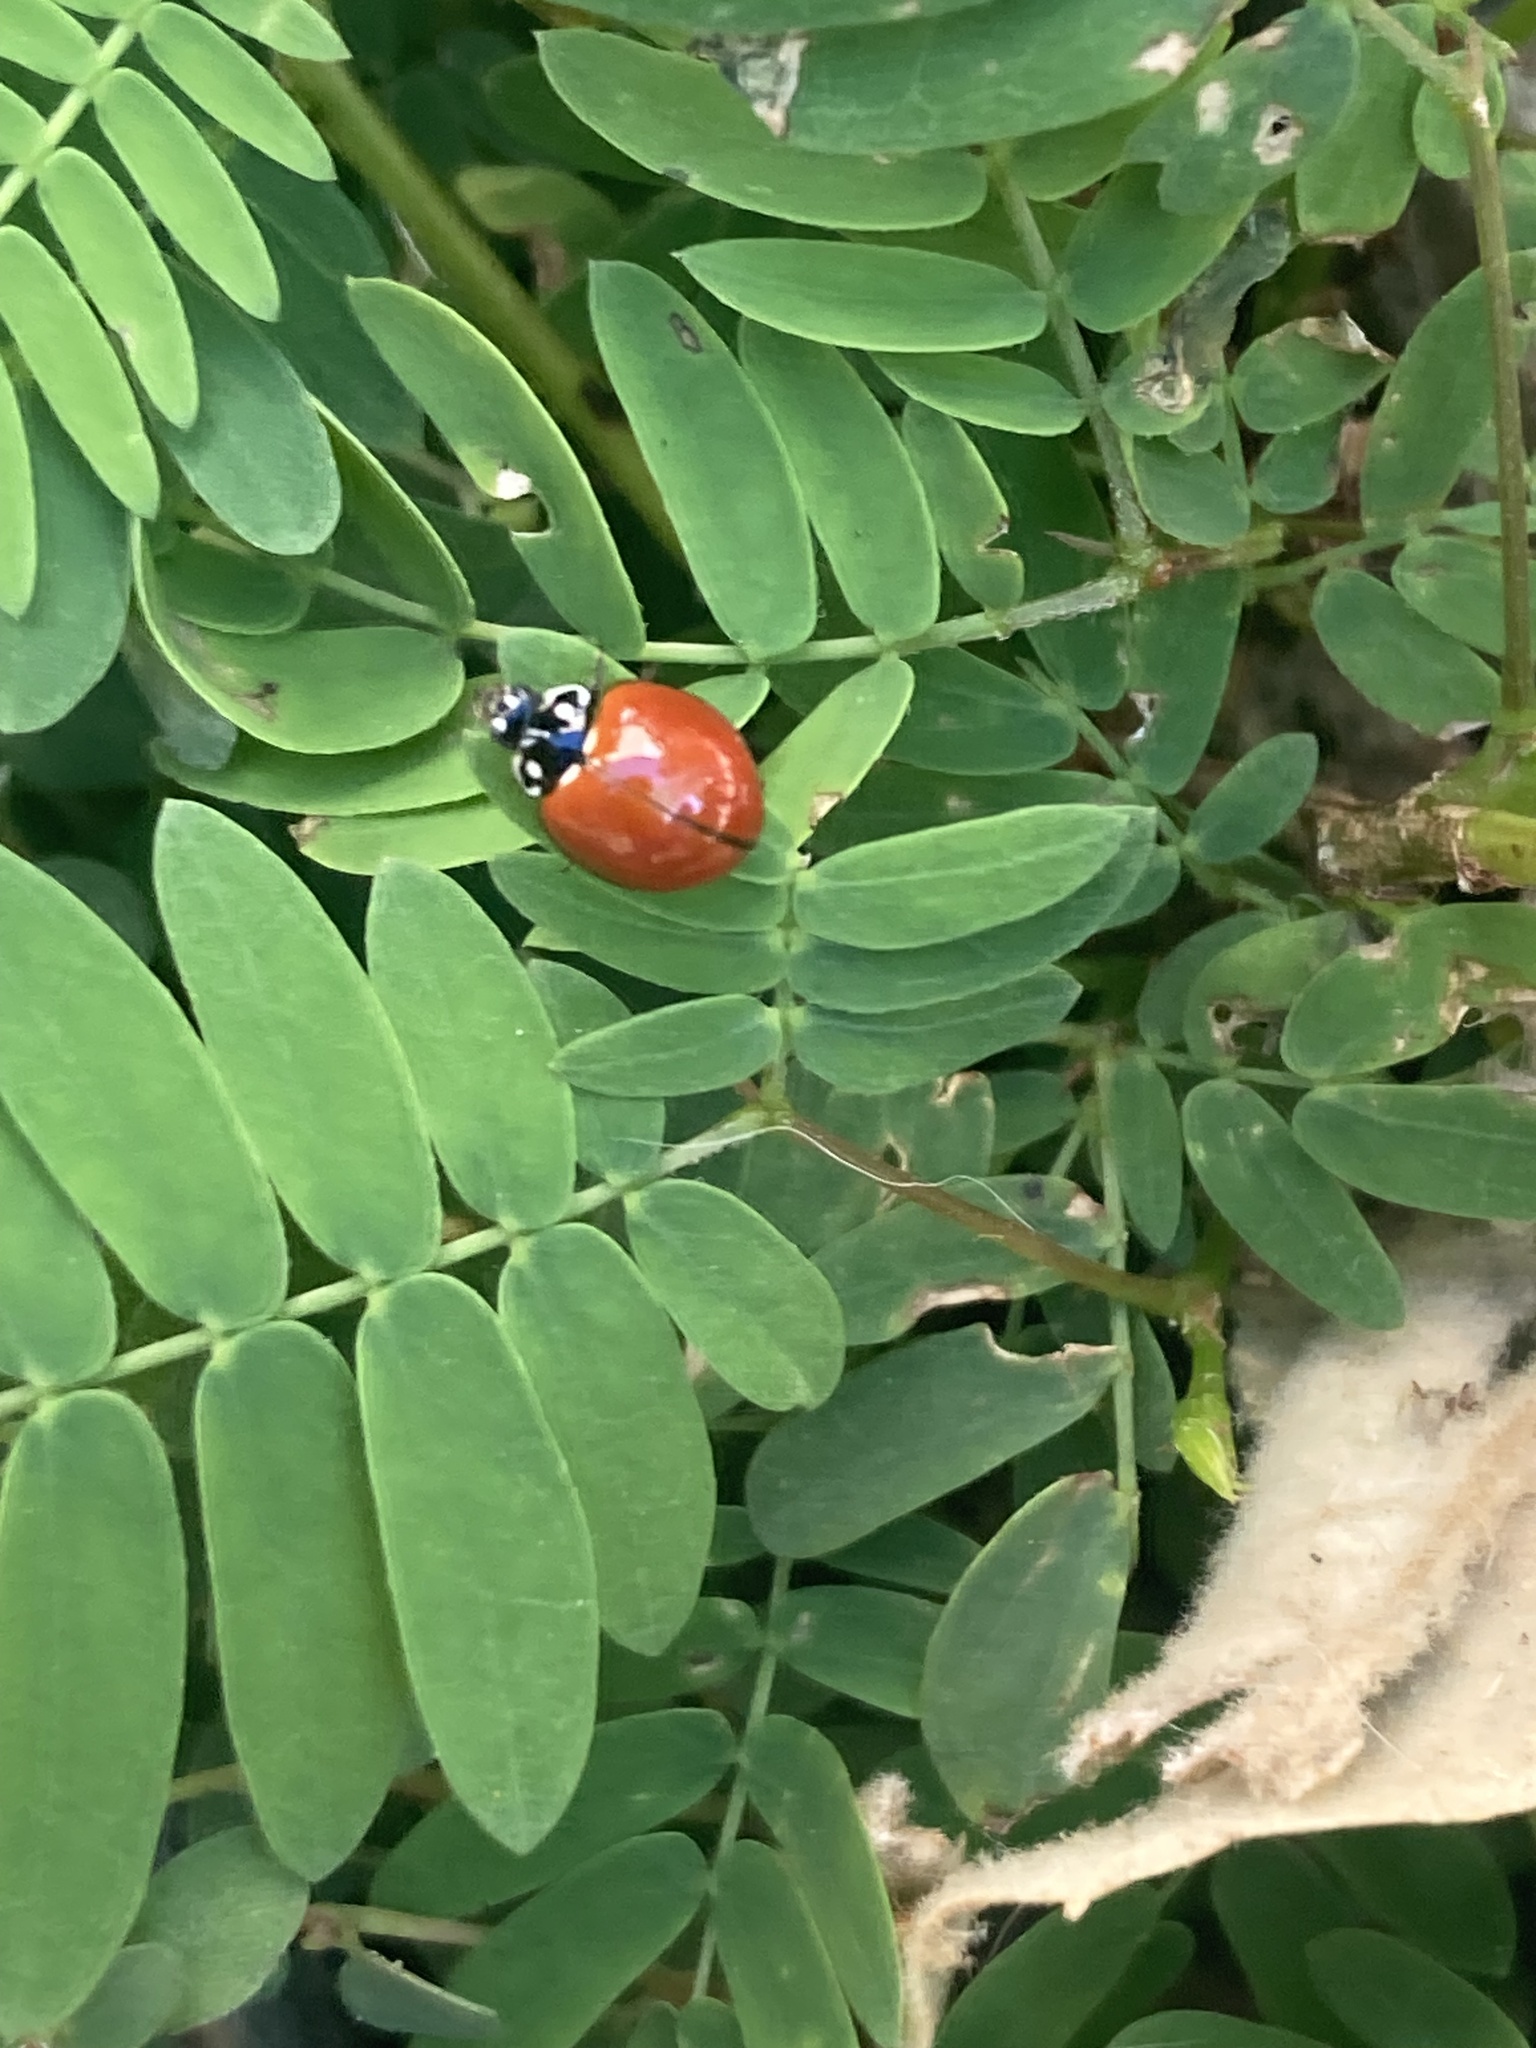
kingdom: Animalia
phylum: Arthropoda
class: Insecta
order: Coleoptera
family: Coccinellidae
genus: Cycloneda
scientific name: Cycloneda sanguinea
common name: Ladybird beetle
